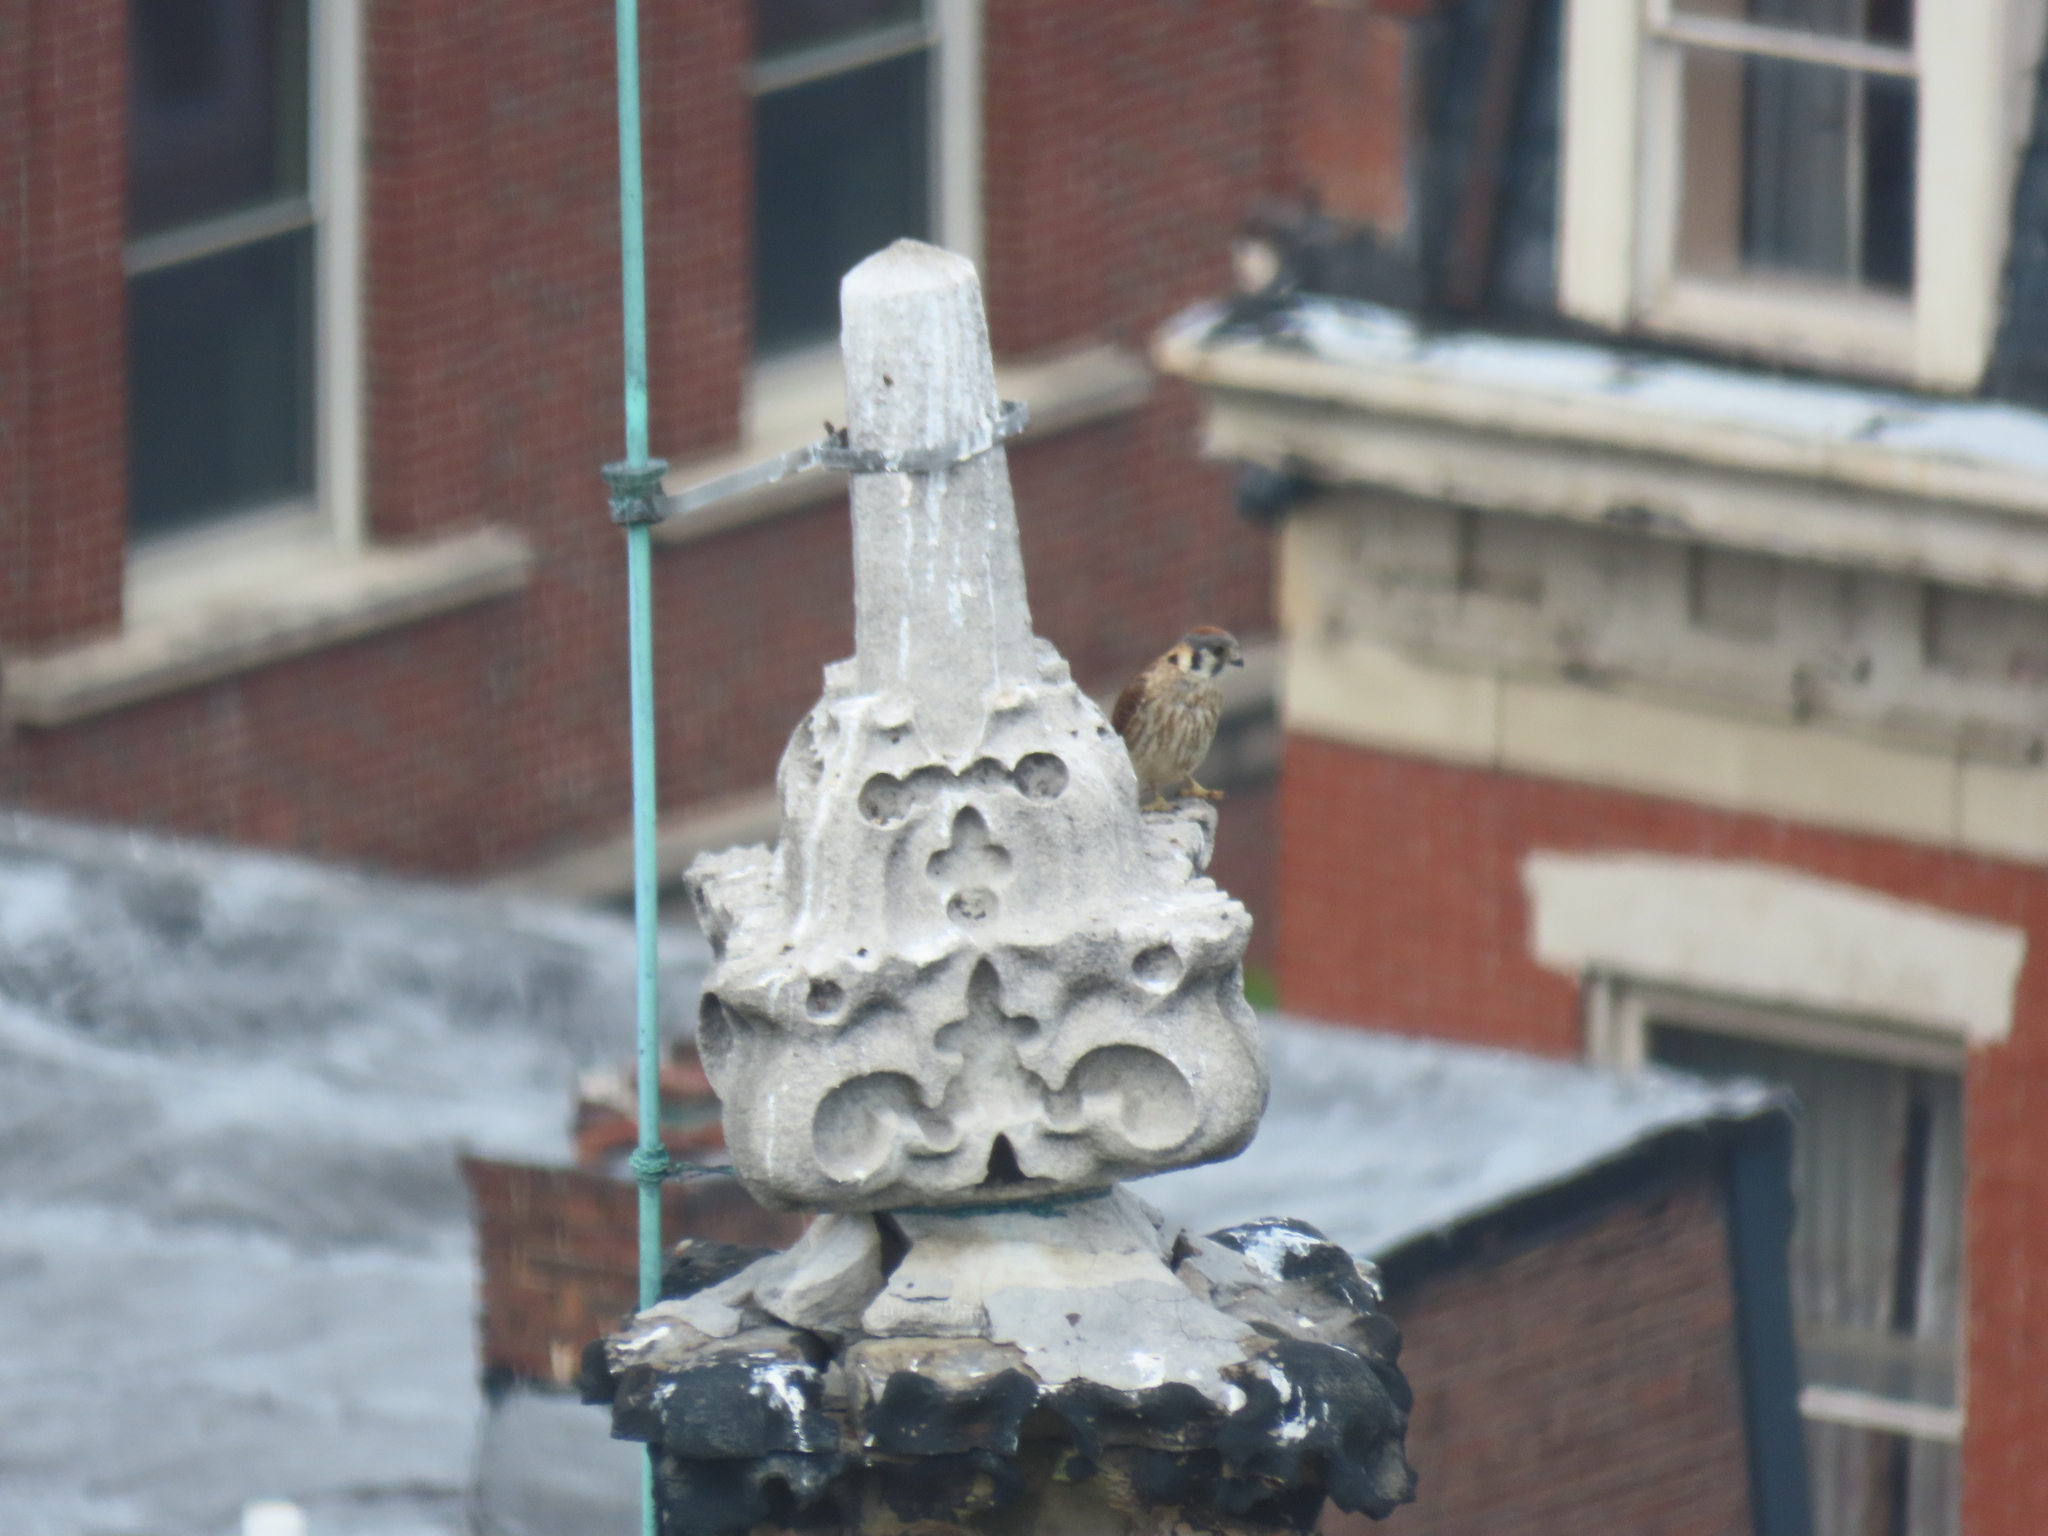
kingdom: Animalia
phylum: Chordata
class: Aves
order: Falconiformes
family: Falconidae
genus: Falco
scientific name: Falco sparverius
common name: American kestrel
